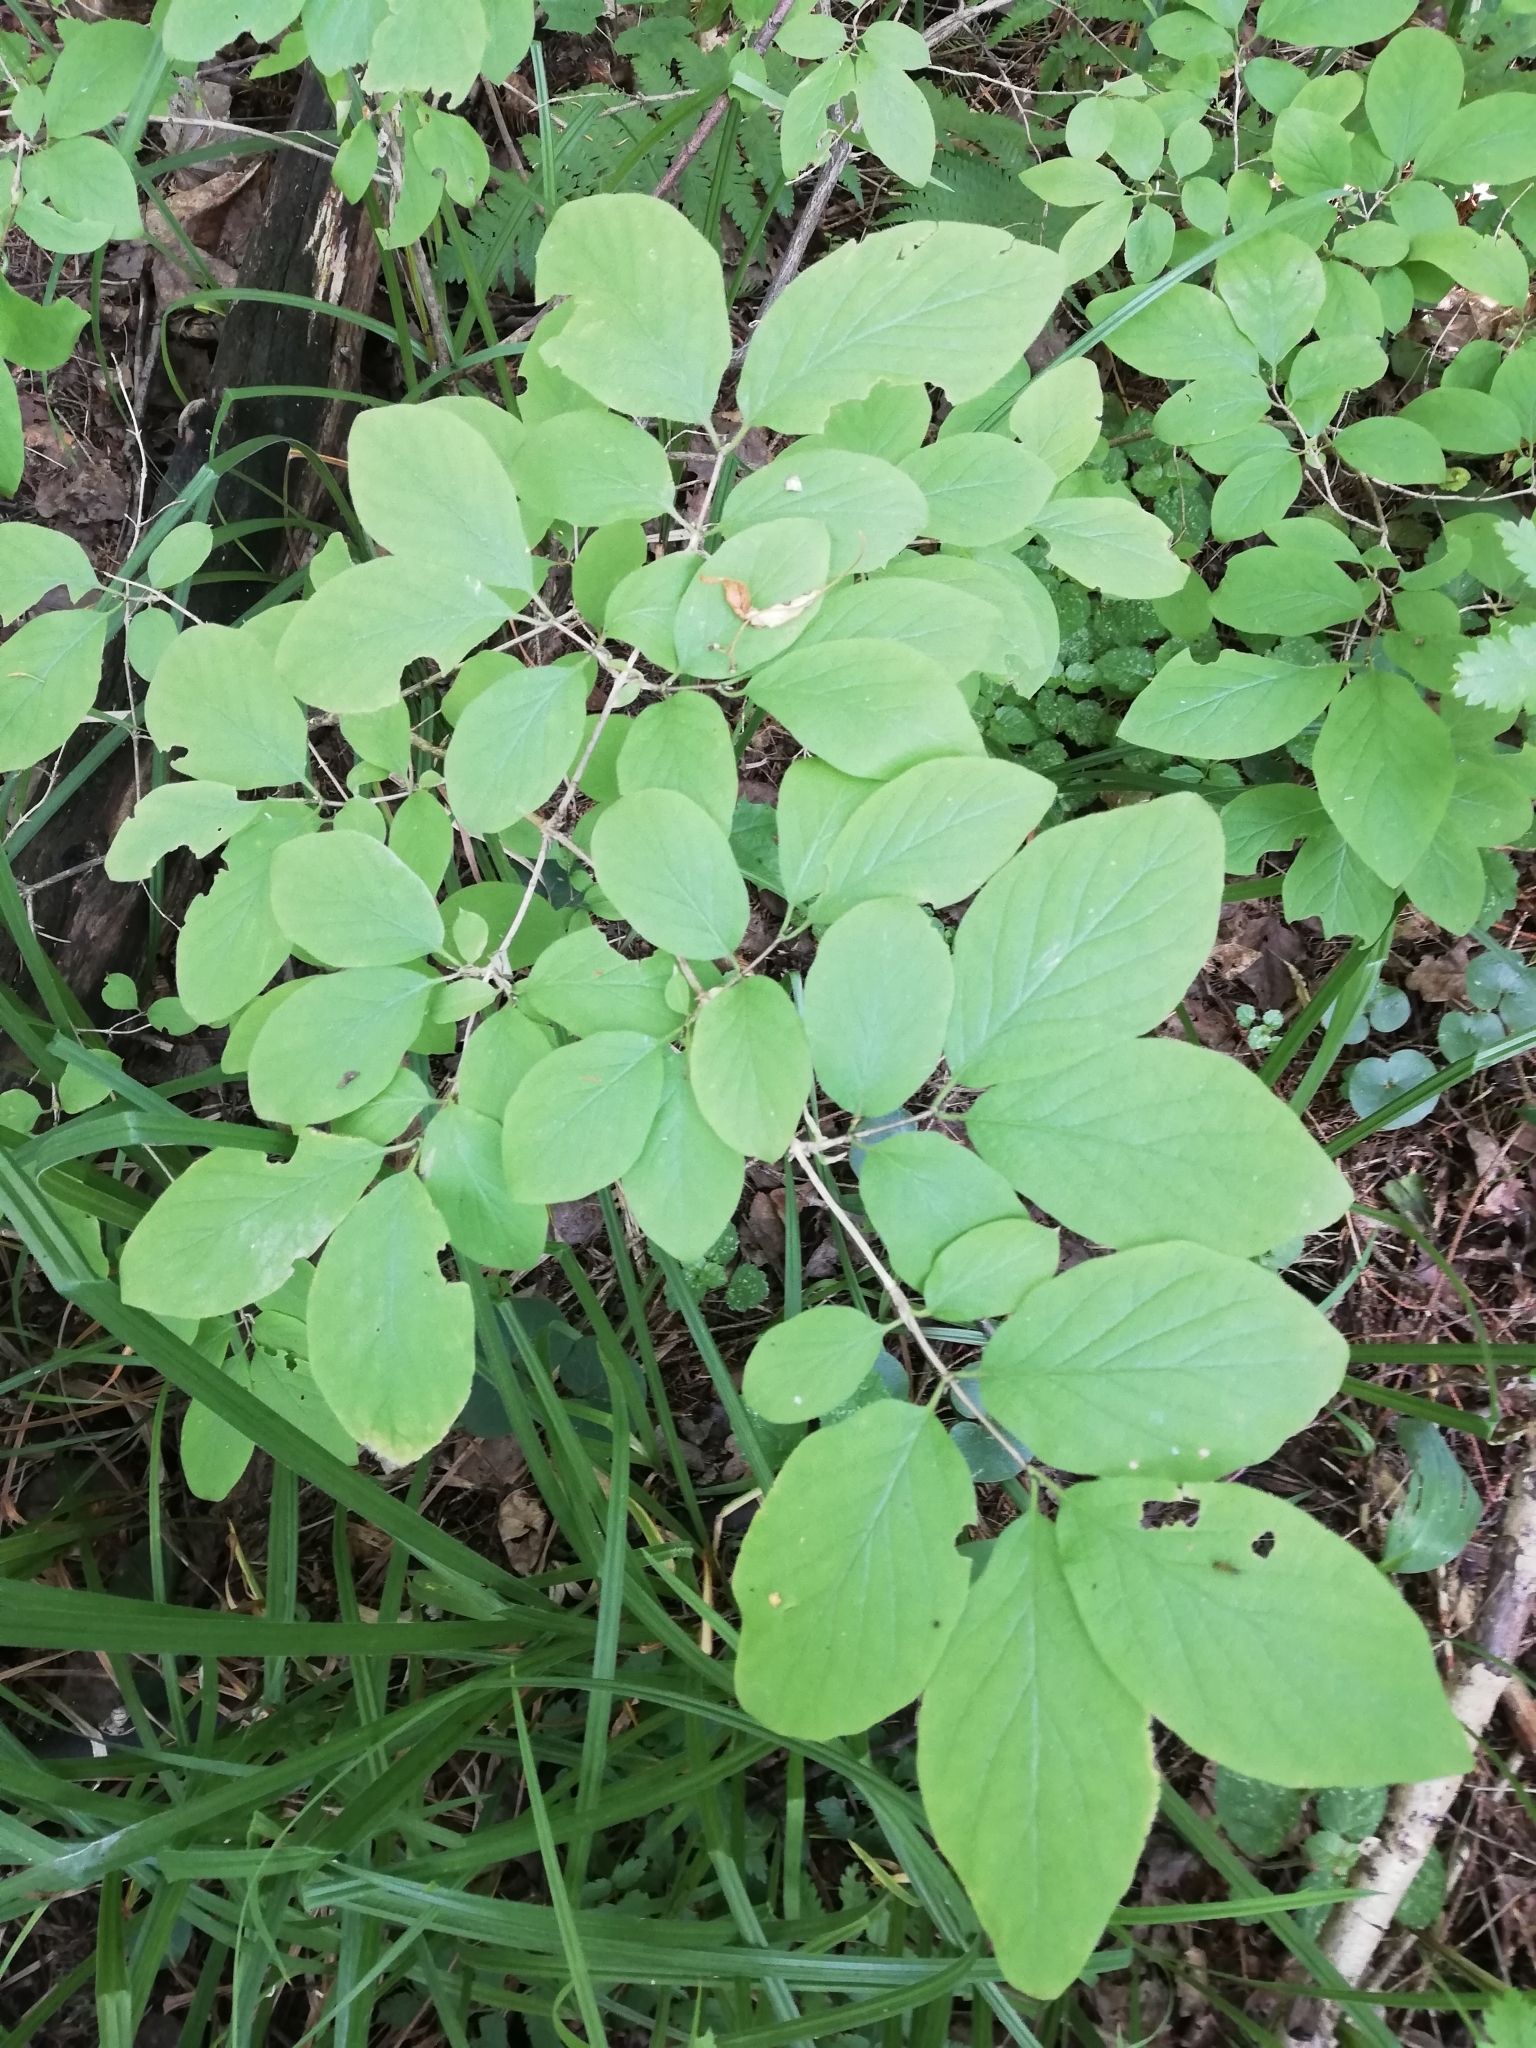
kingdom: Plantae
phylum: Tracheophyta
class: Magnoliopsida
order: Dipsacales
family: Caprifoliaceae
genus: Lonicera
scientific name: Lonicera xylosteum
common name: Fly honeysuckle
